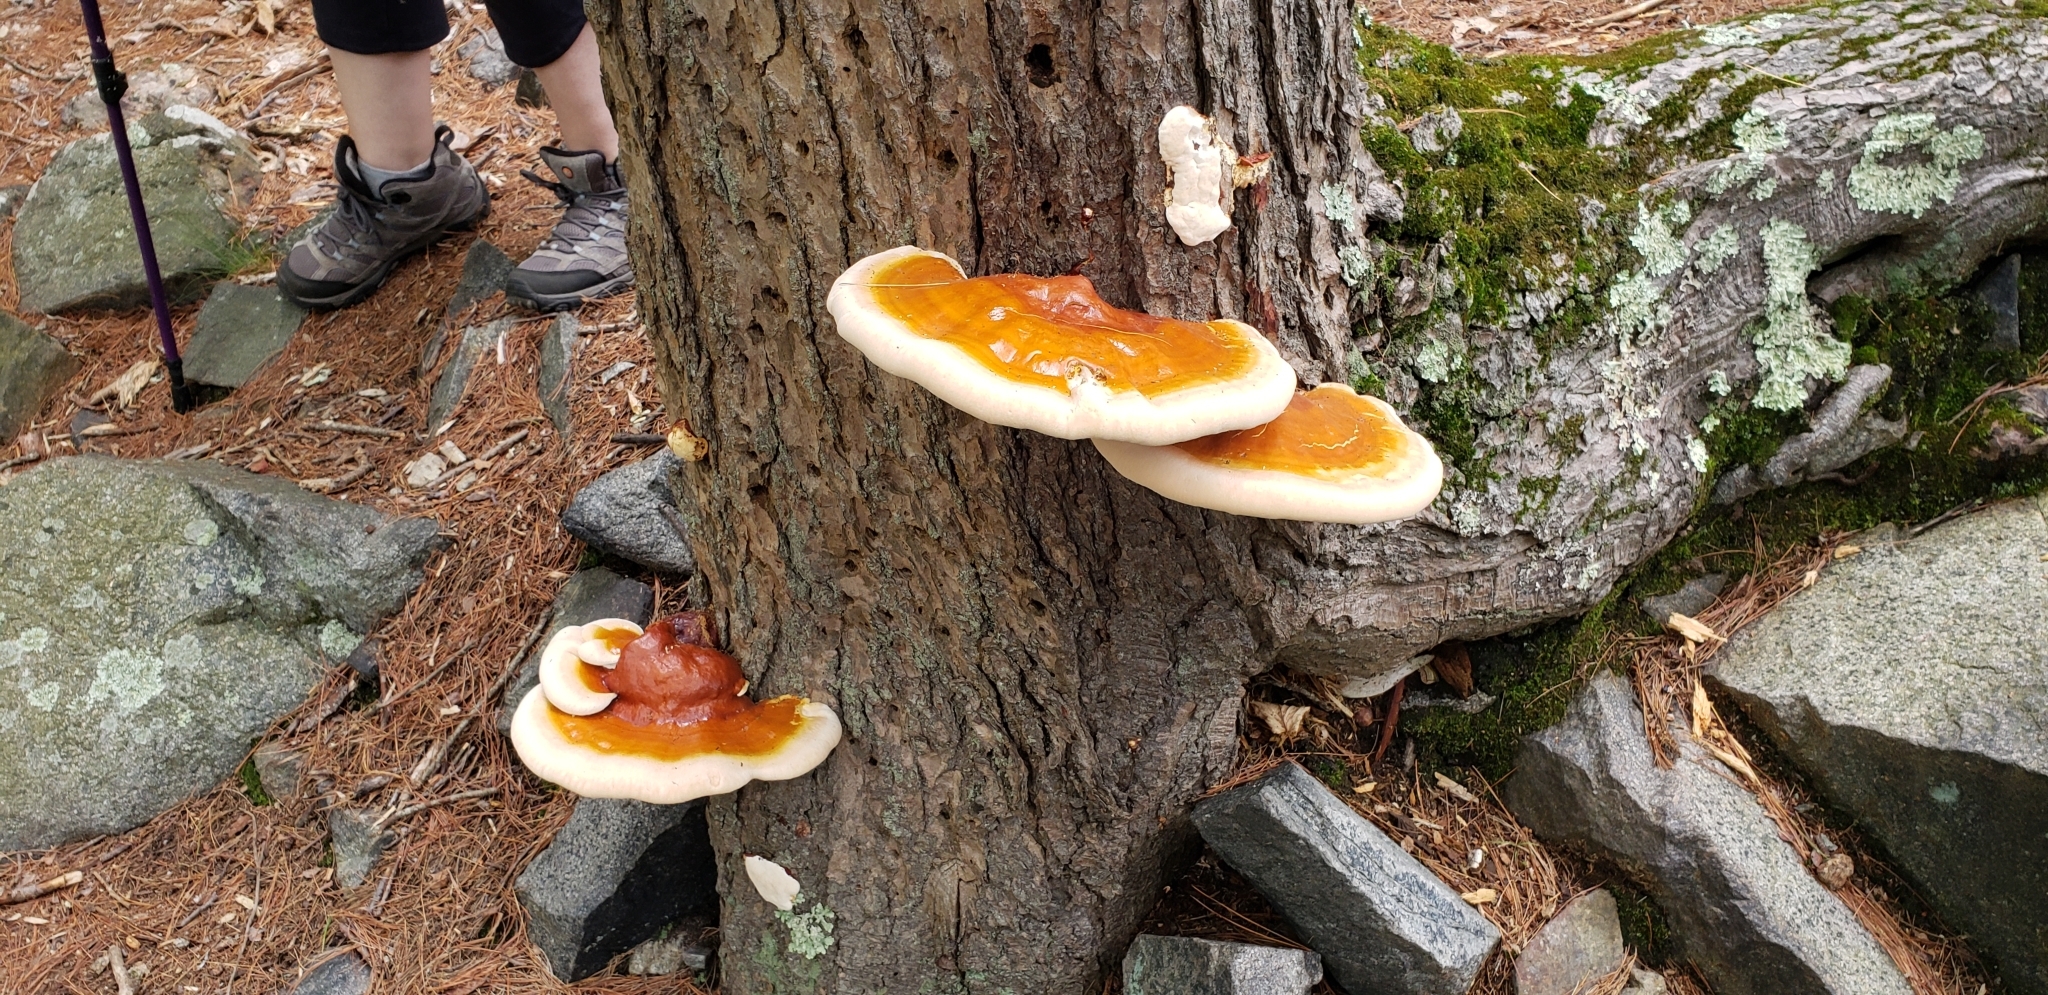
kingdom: Fungi
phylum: Basidiomycota
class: Agaricomycetes
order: Polyporales
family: Polyporaceae
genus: Ganoderma
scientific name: Ganoderma tsugae
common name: Hemlock varnish shelf
